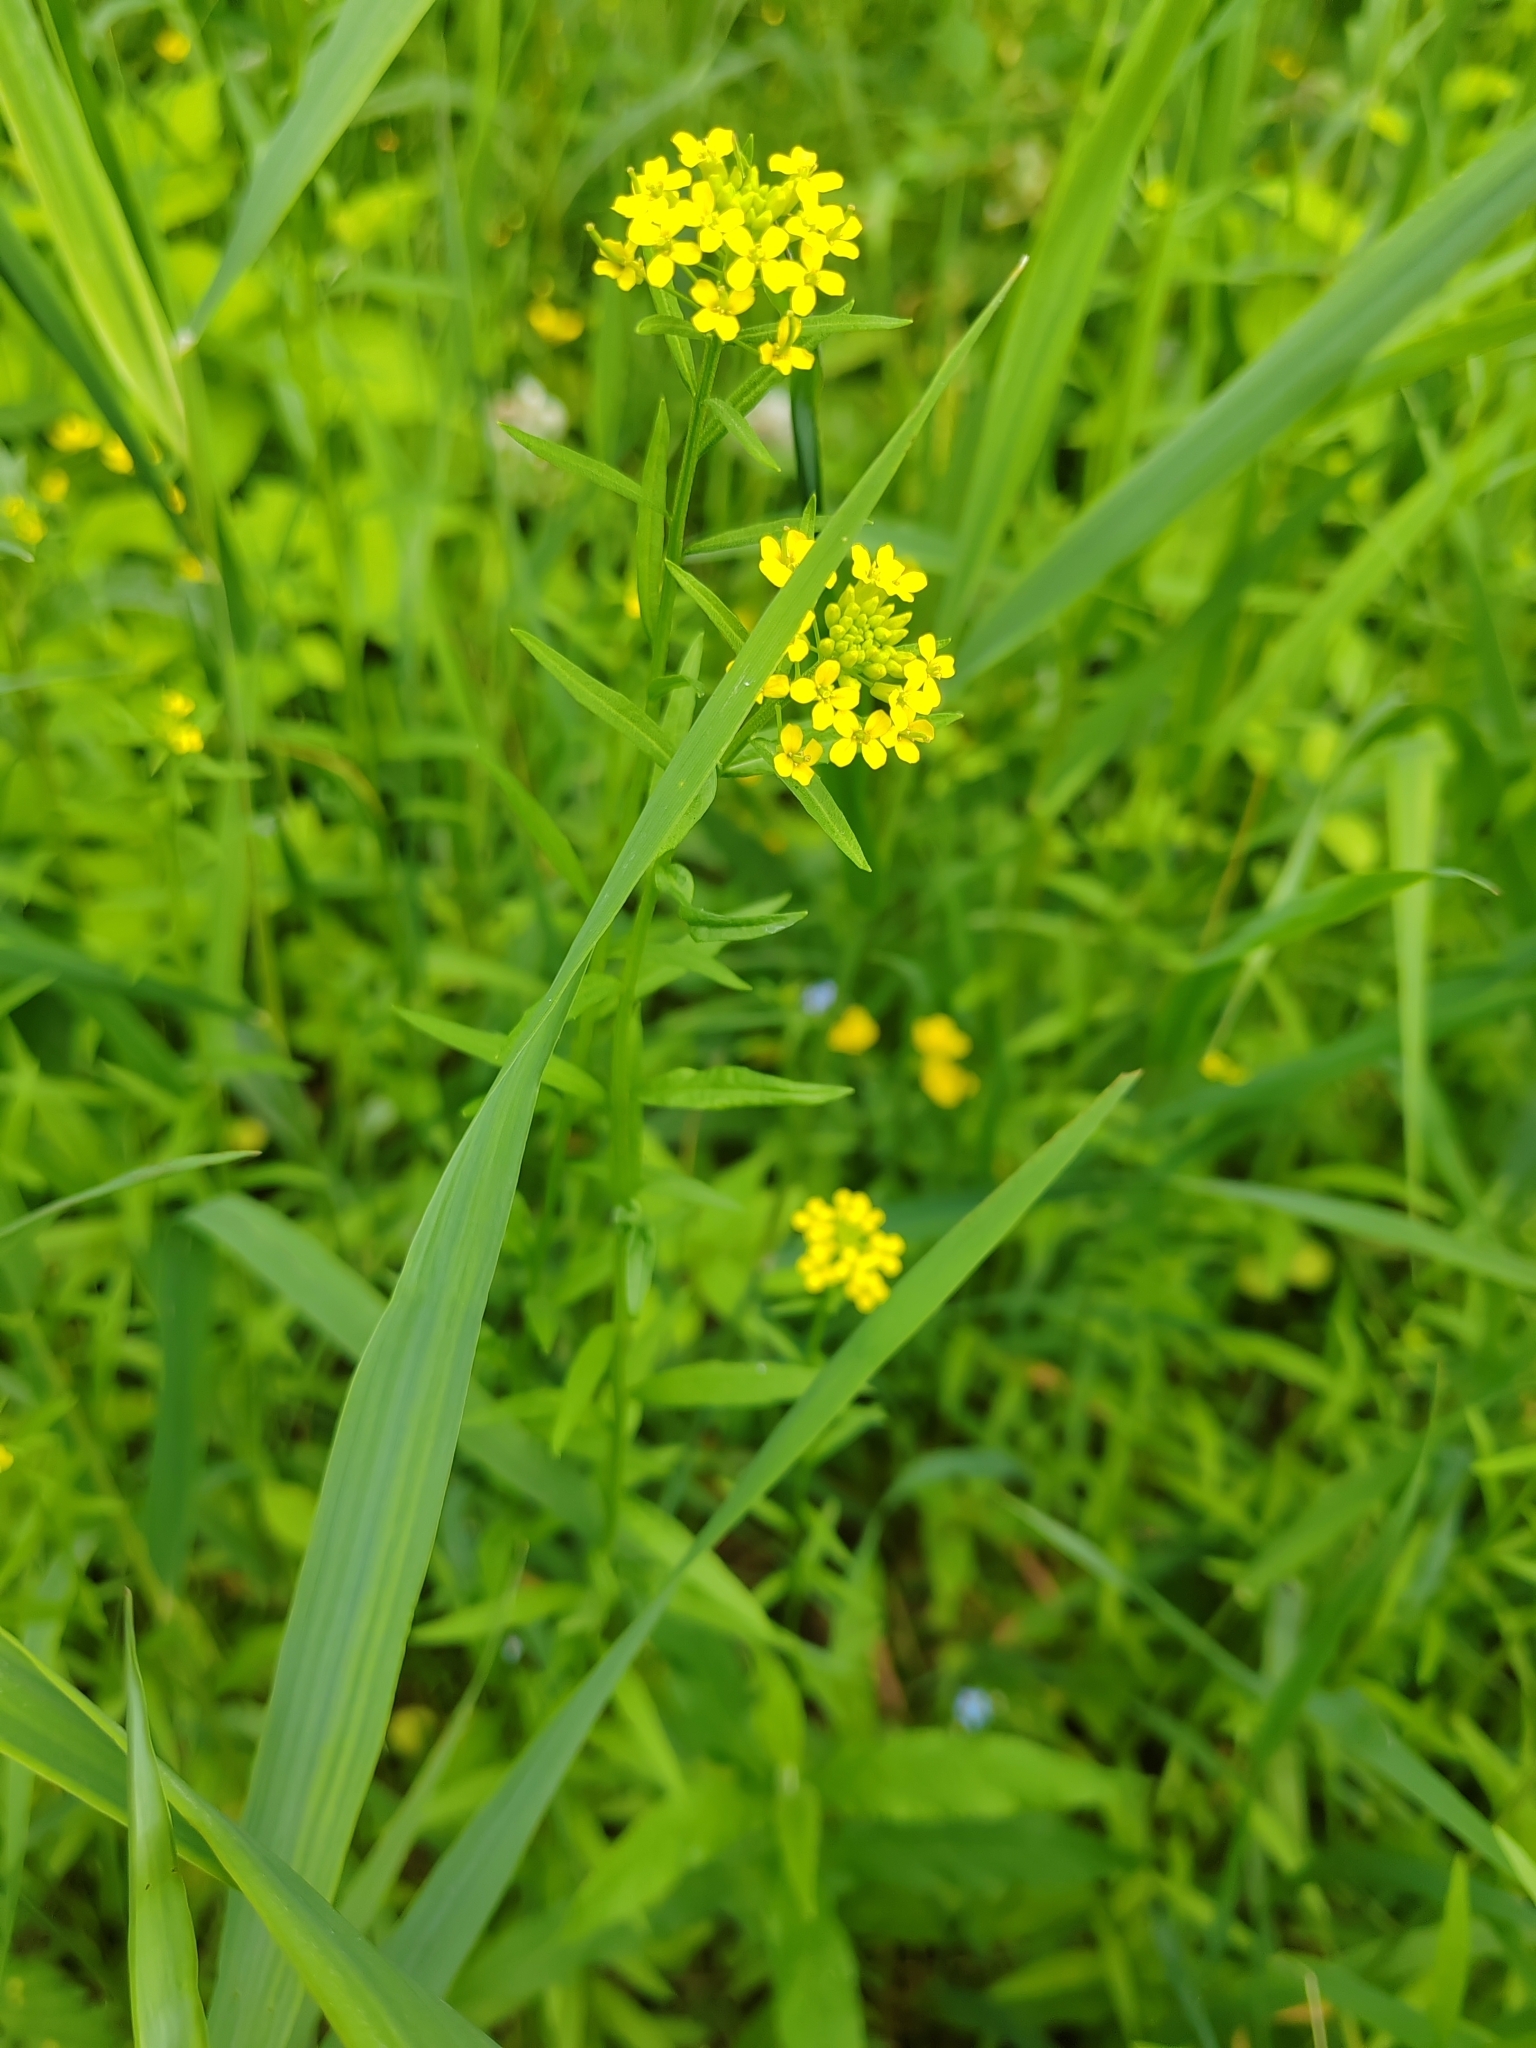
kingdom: Plantae
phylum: Tracheophyta
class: Magnoliopsida
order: Brassicales
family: Brassicaceae
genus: Erysimum
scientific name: Erysimum cheiranthoides
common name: Treacle mustard
